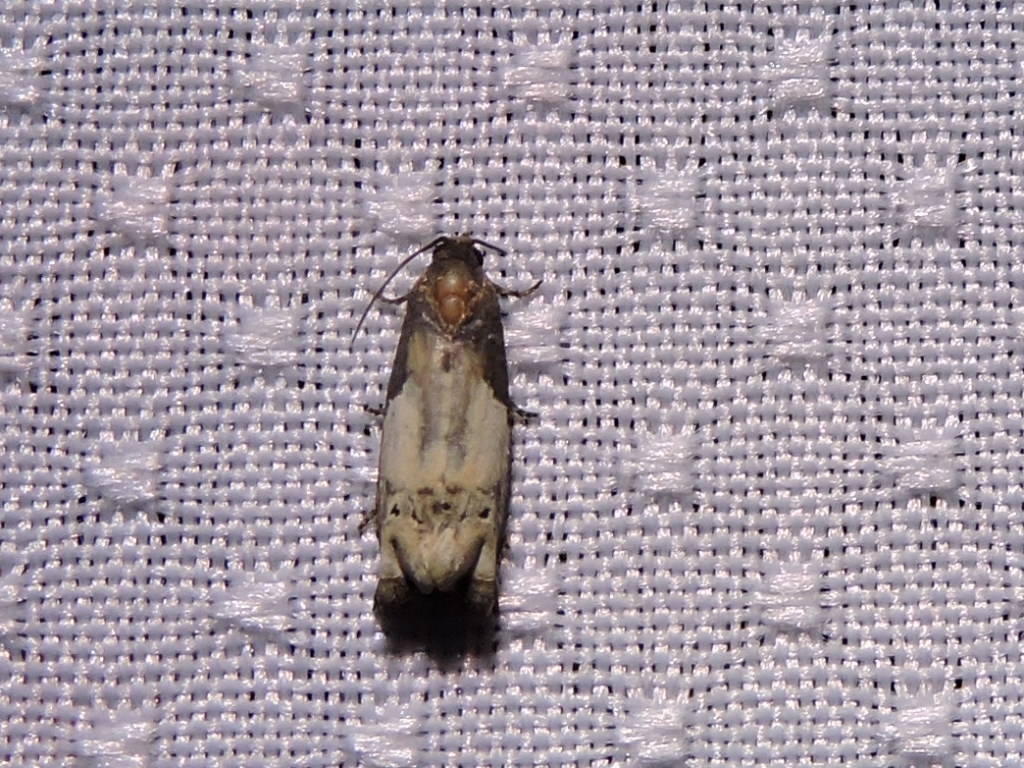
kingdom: Animalia
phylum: Arthropoda
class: Insecta
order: Lepidoptera
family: Tortricidae
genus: Epiblema
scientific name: Epiblema scudderiana
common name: Goldenrod gall moth
